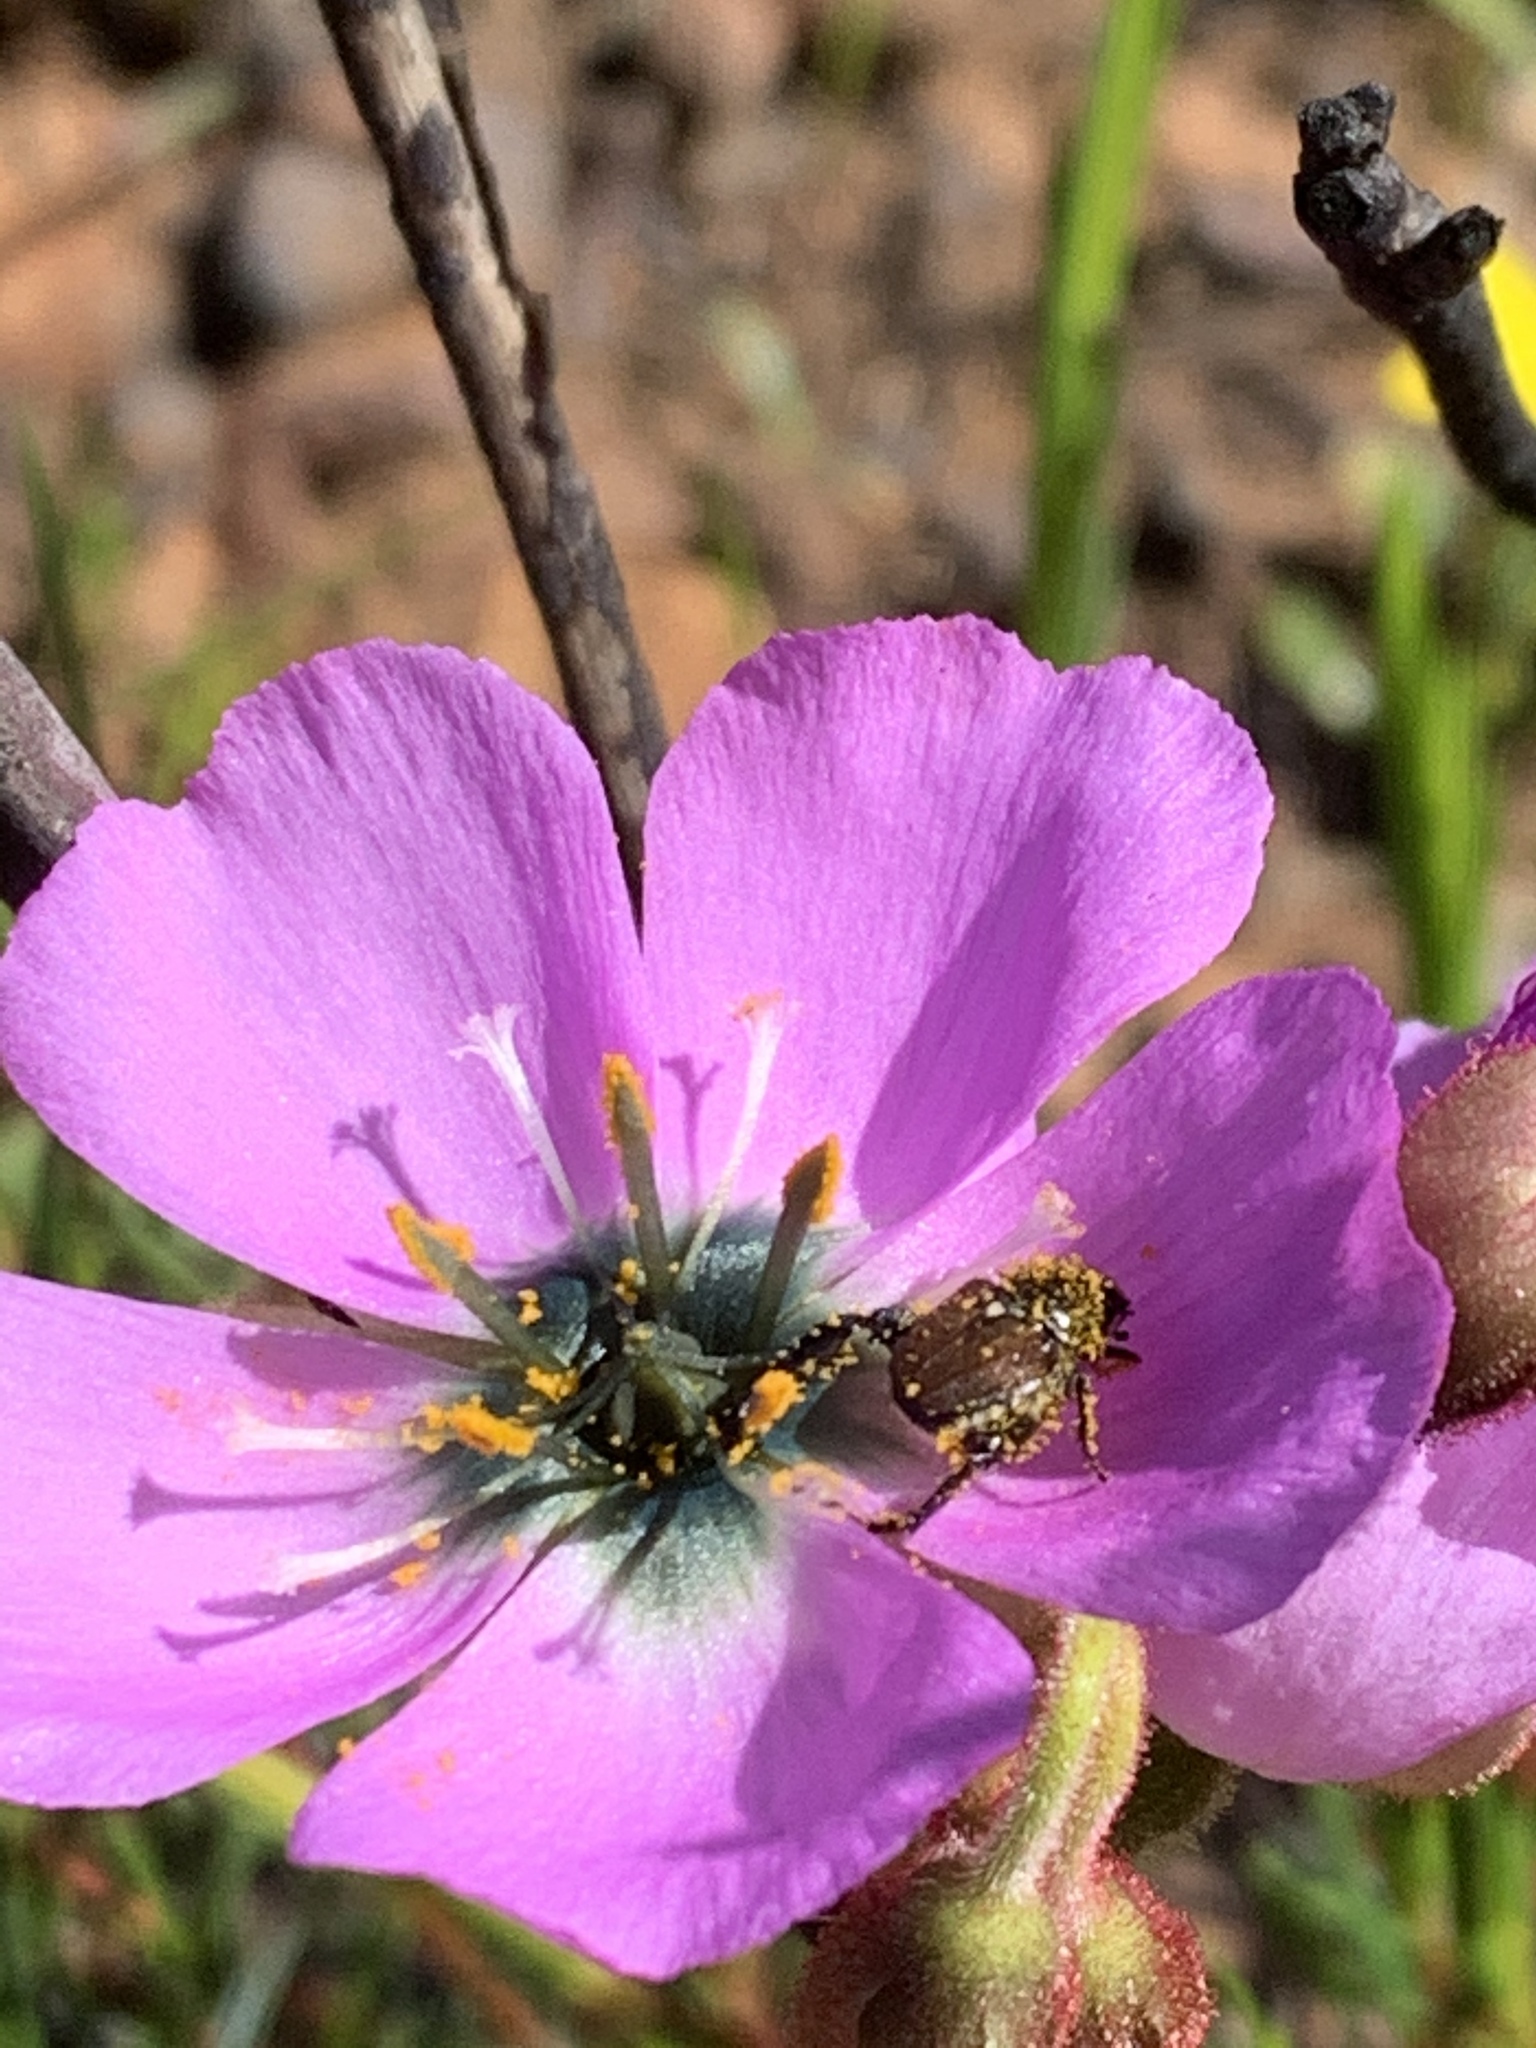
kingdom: Plantae
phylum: Tracheophyta
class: Magnoliopsida
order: Caryophyllales
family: Droseraceae
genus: Drosera
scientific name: Drosera cistiflora
